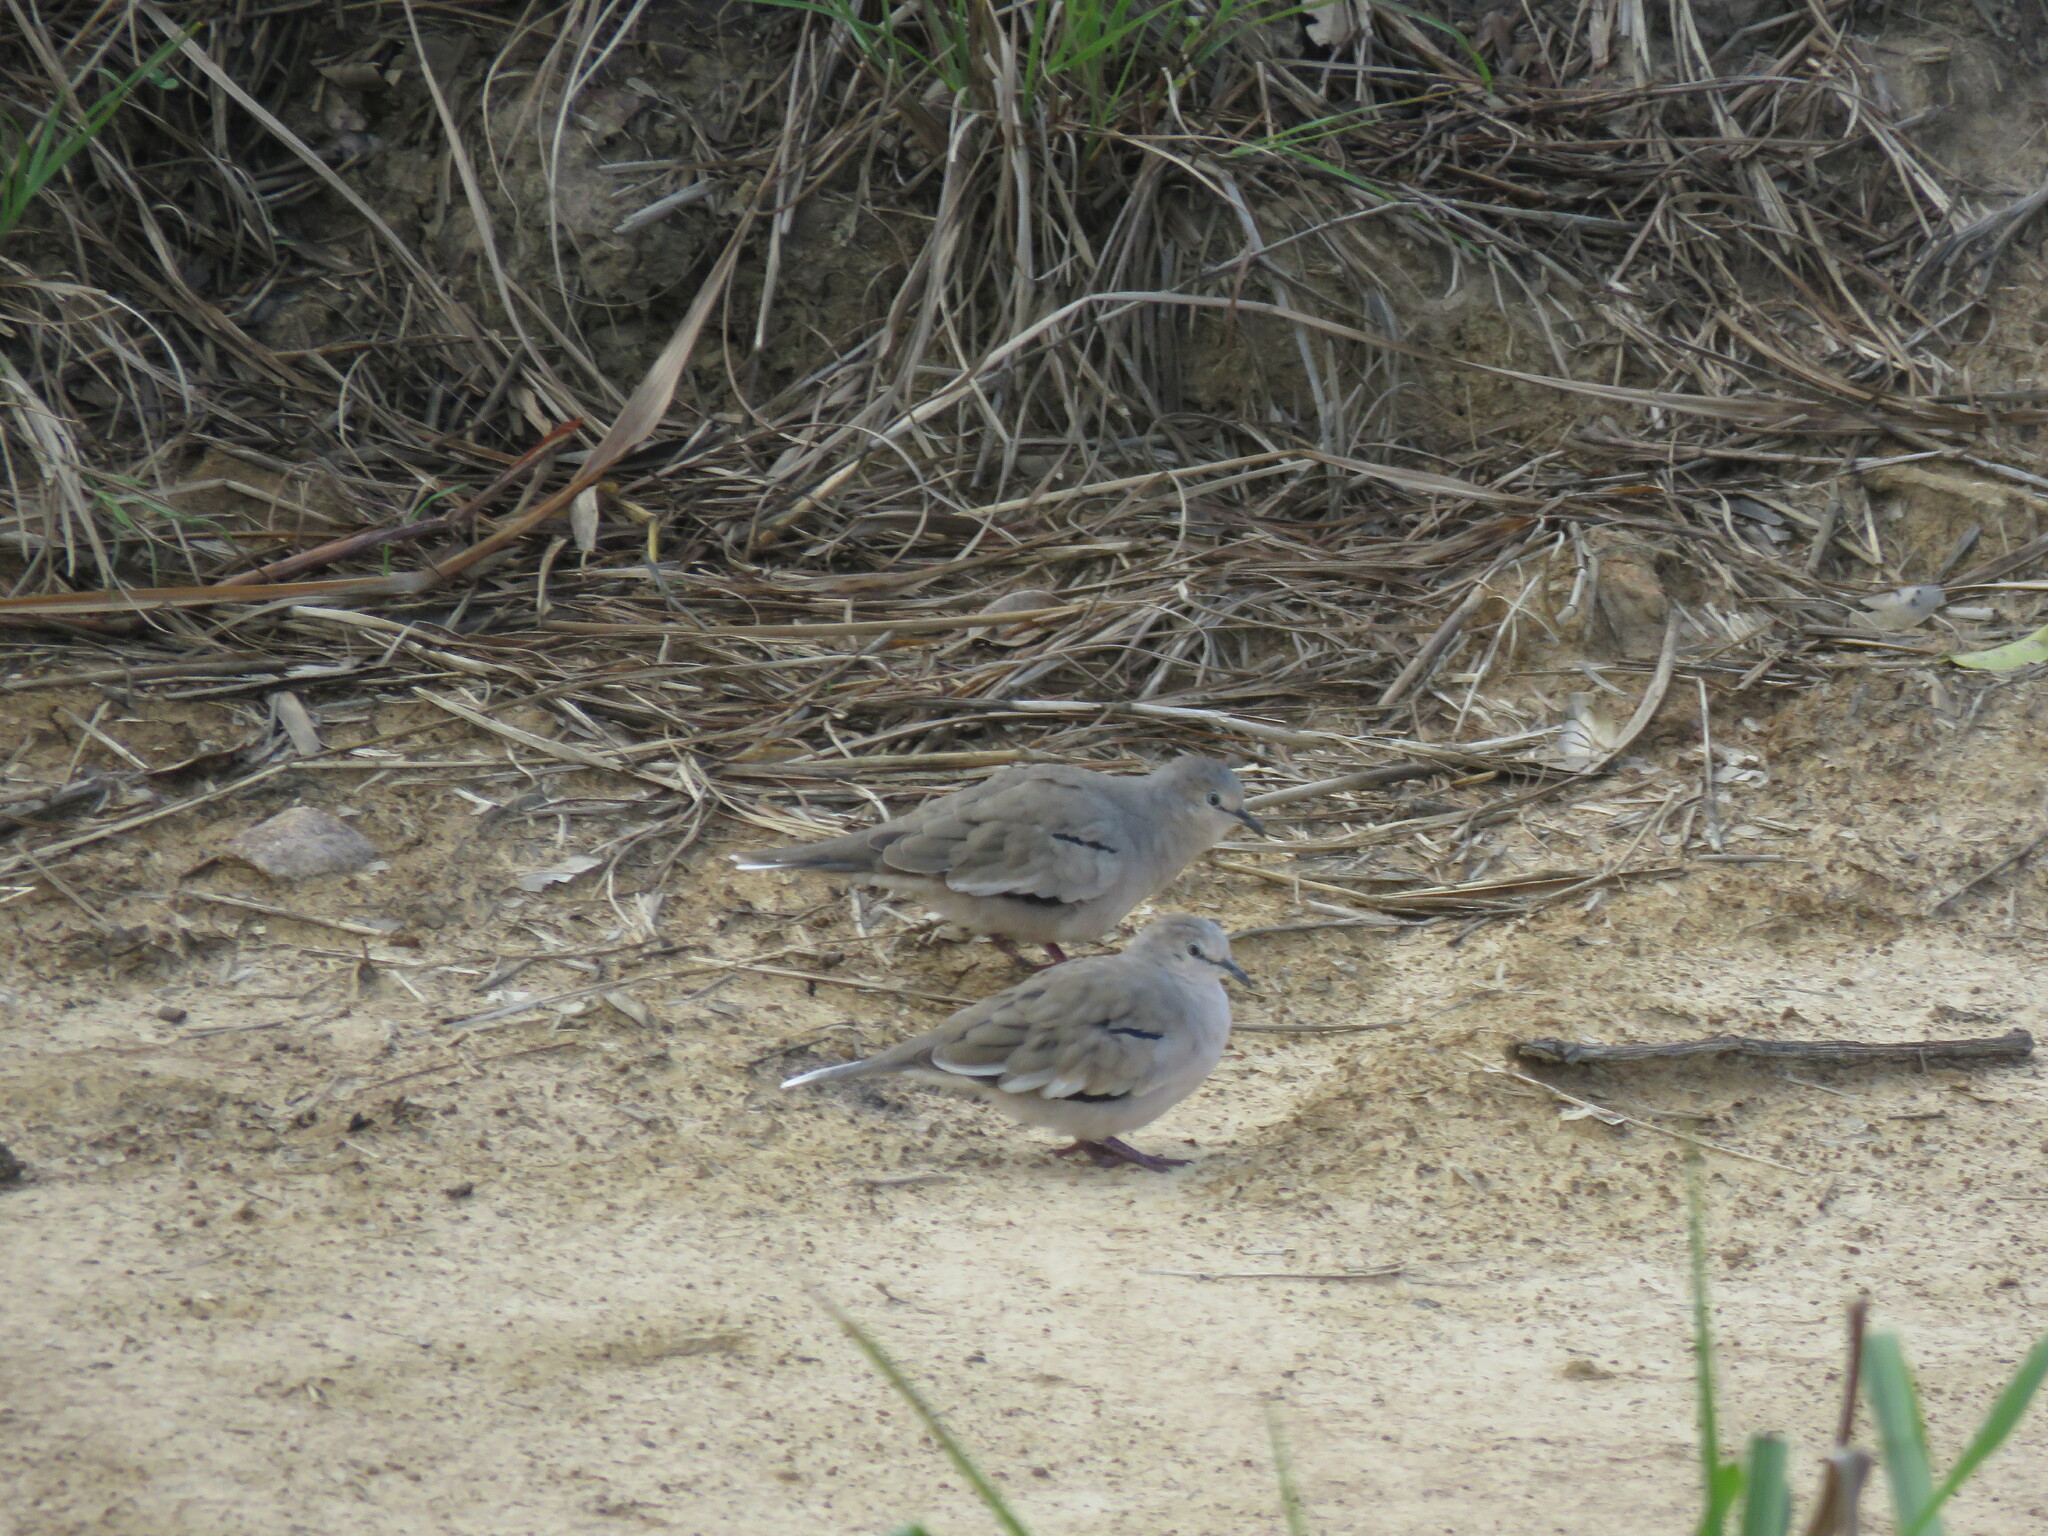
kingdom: Animalia
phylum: Chordata
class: Aves
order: Columbiformes
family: Columbidae
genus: Columbina
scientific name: Columbina picui
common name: Picui ground dove
